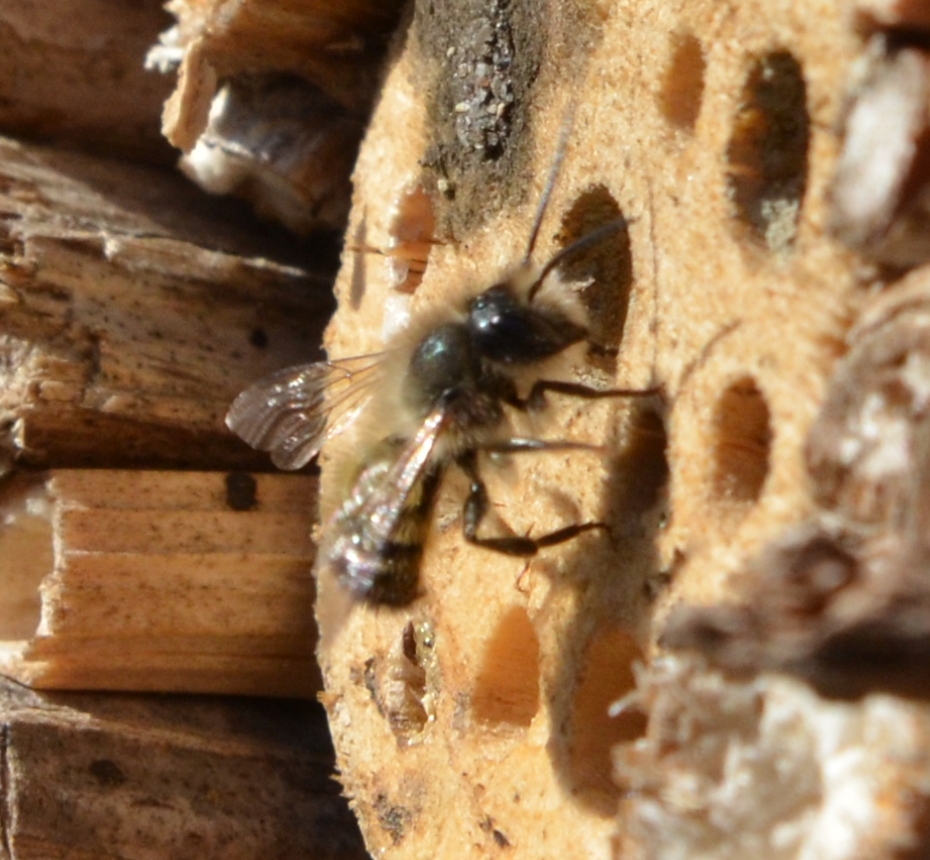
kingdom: Animalia
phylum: Arthropoda
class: Insecta
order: Hymenoptera
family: Megachilidae
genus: Osmia
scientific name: Osmia bicornis
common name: Red mason bee
